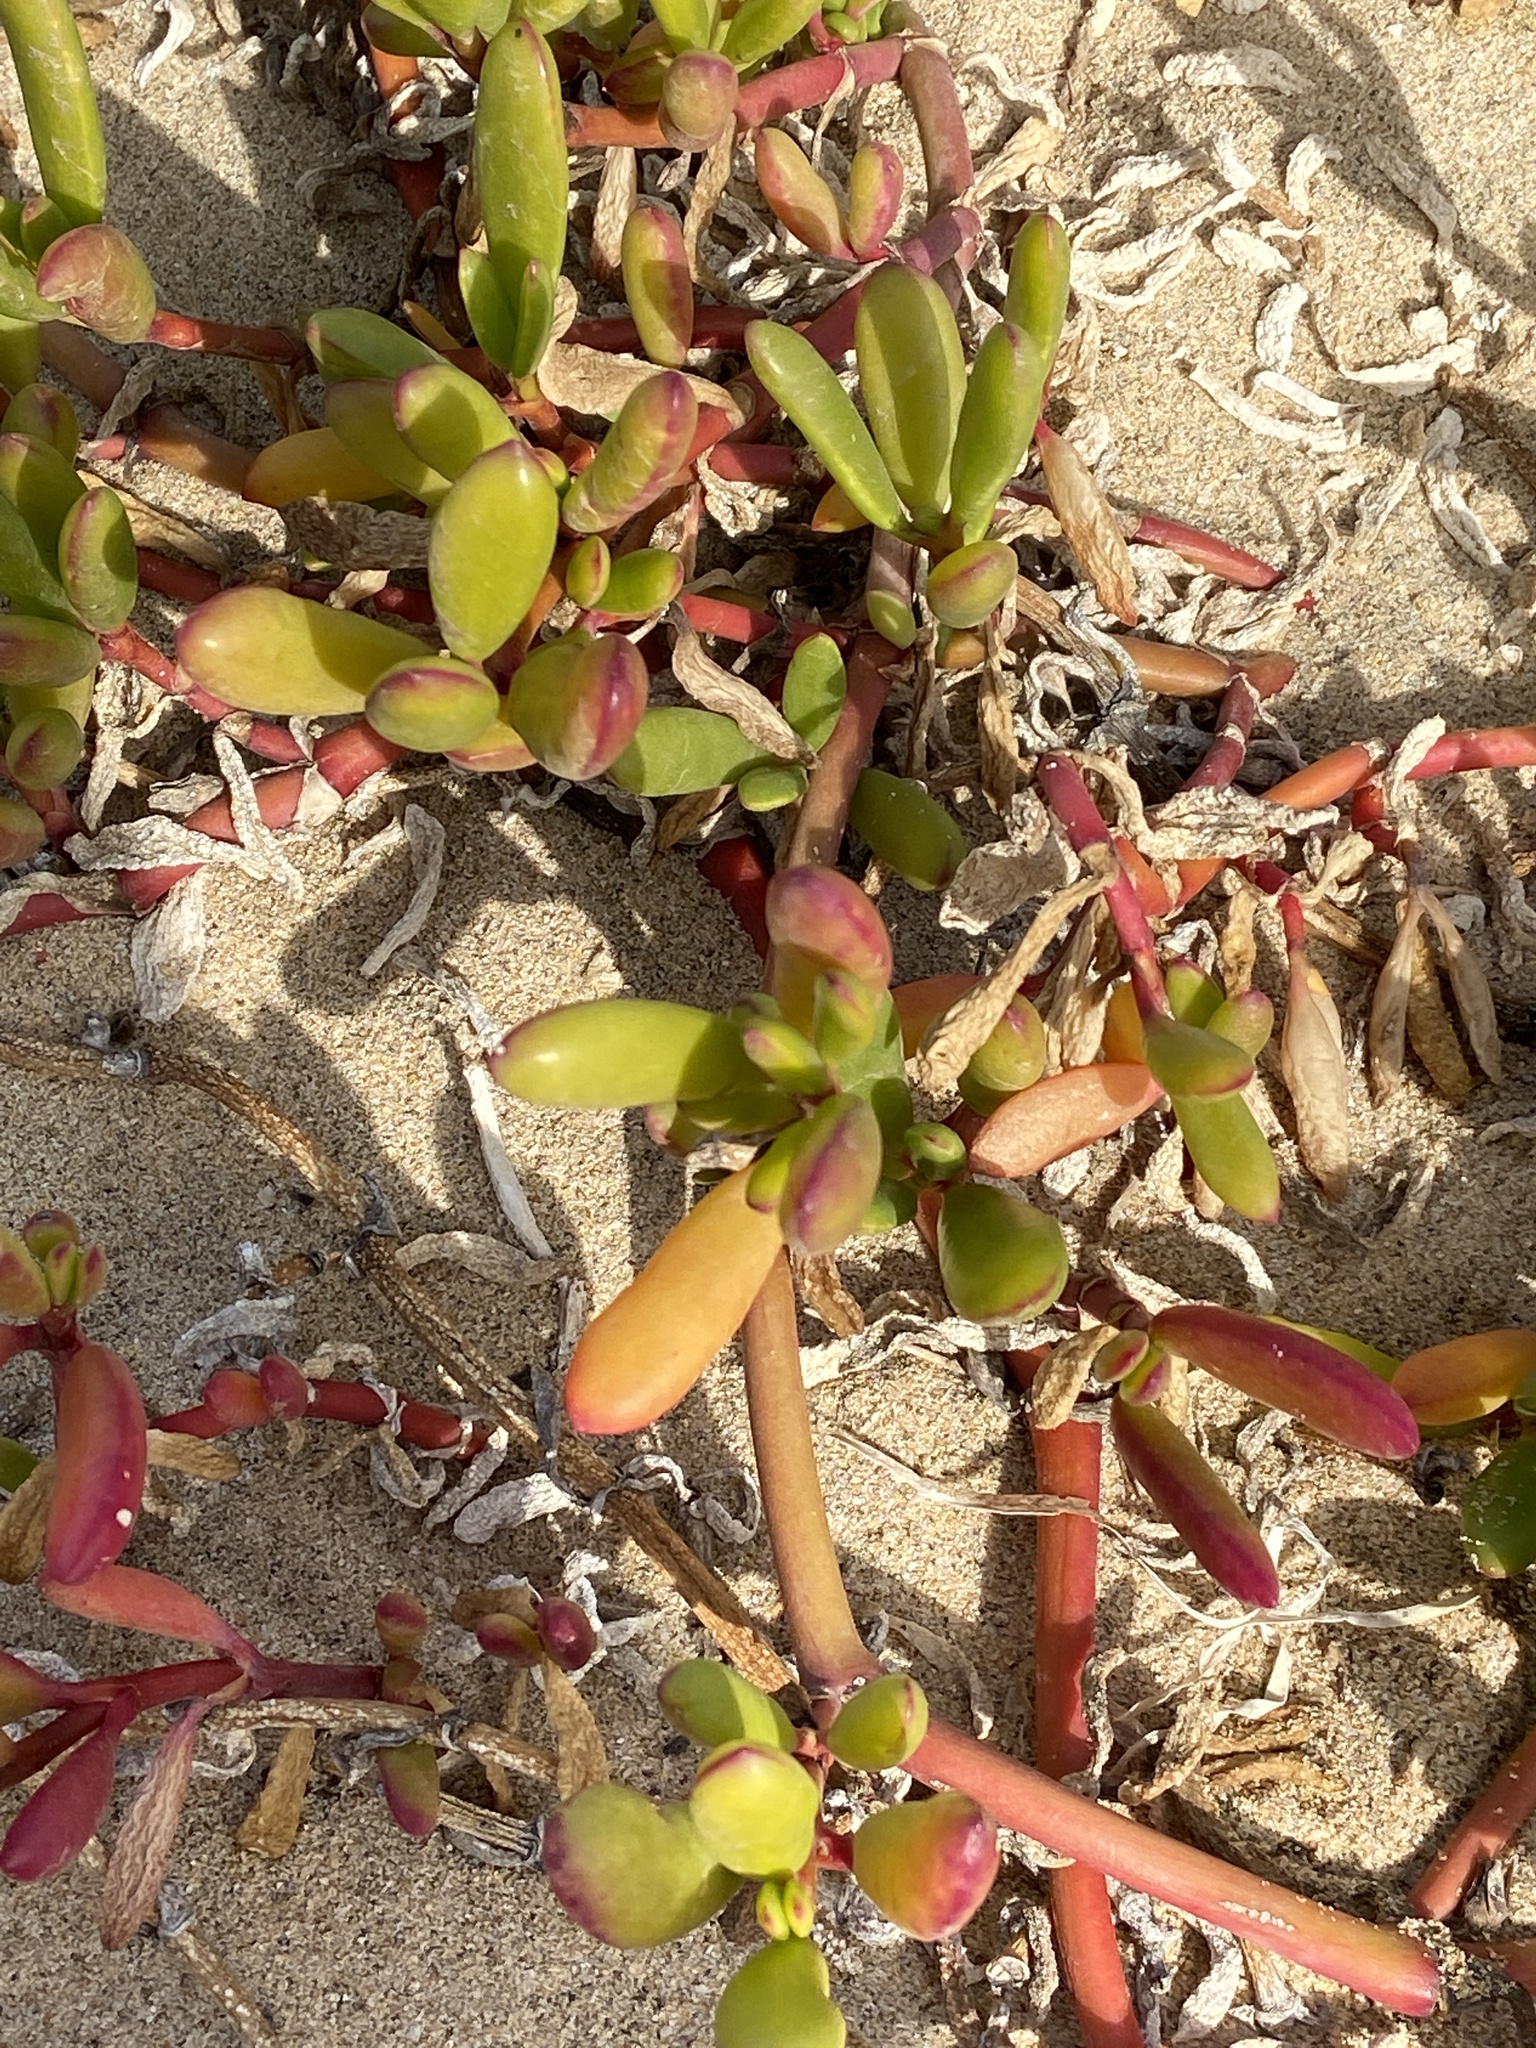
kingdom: Plantae
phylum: Tracheophyta
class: Magnoliopsida
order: Zygophyllales
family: Zygophyllaceae
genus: Tetraena
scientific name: Tetraena fontanesii
